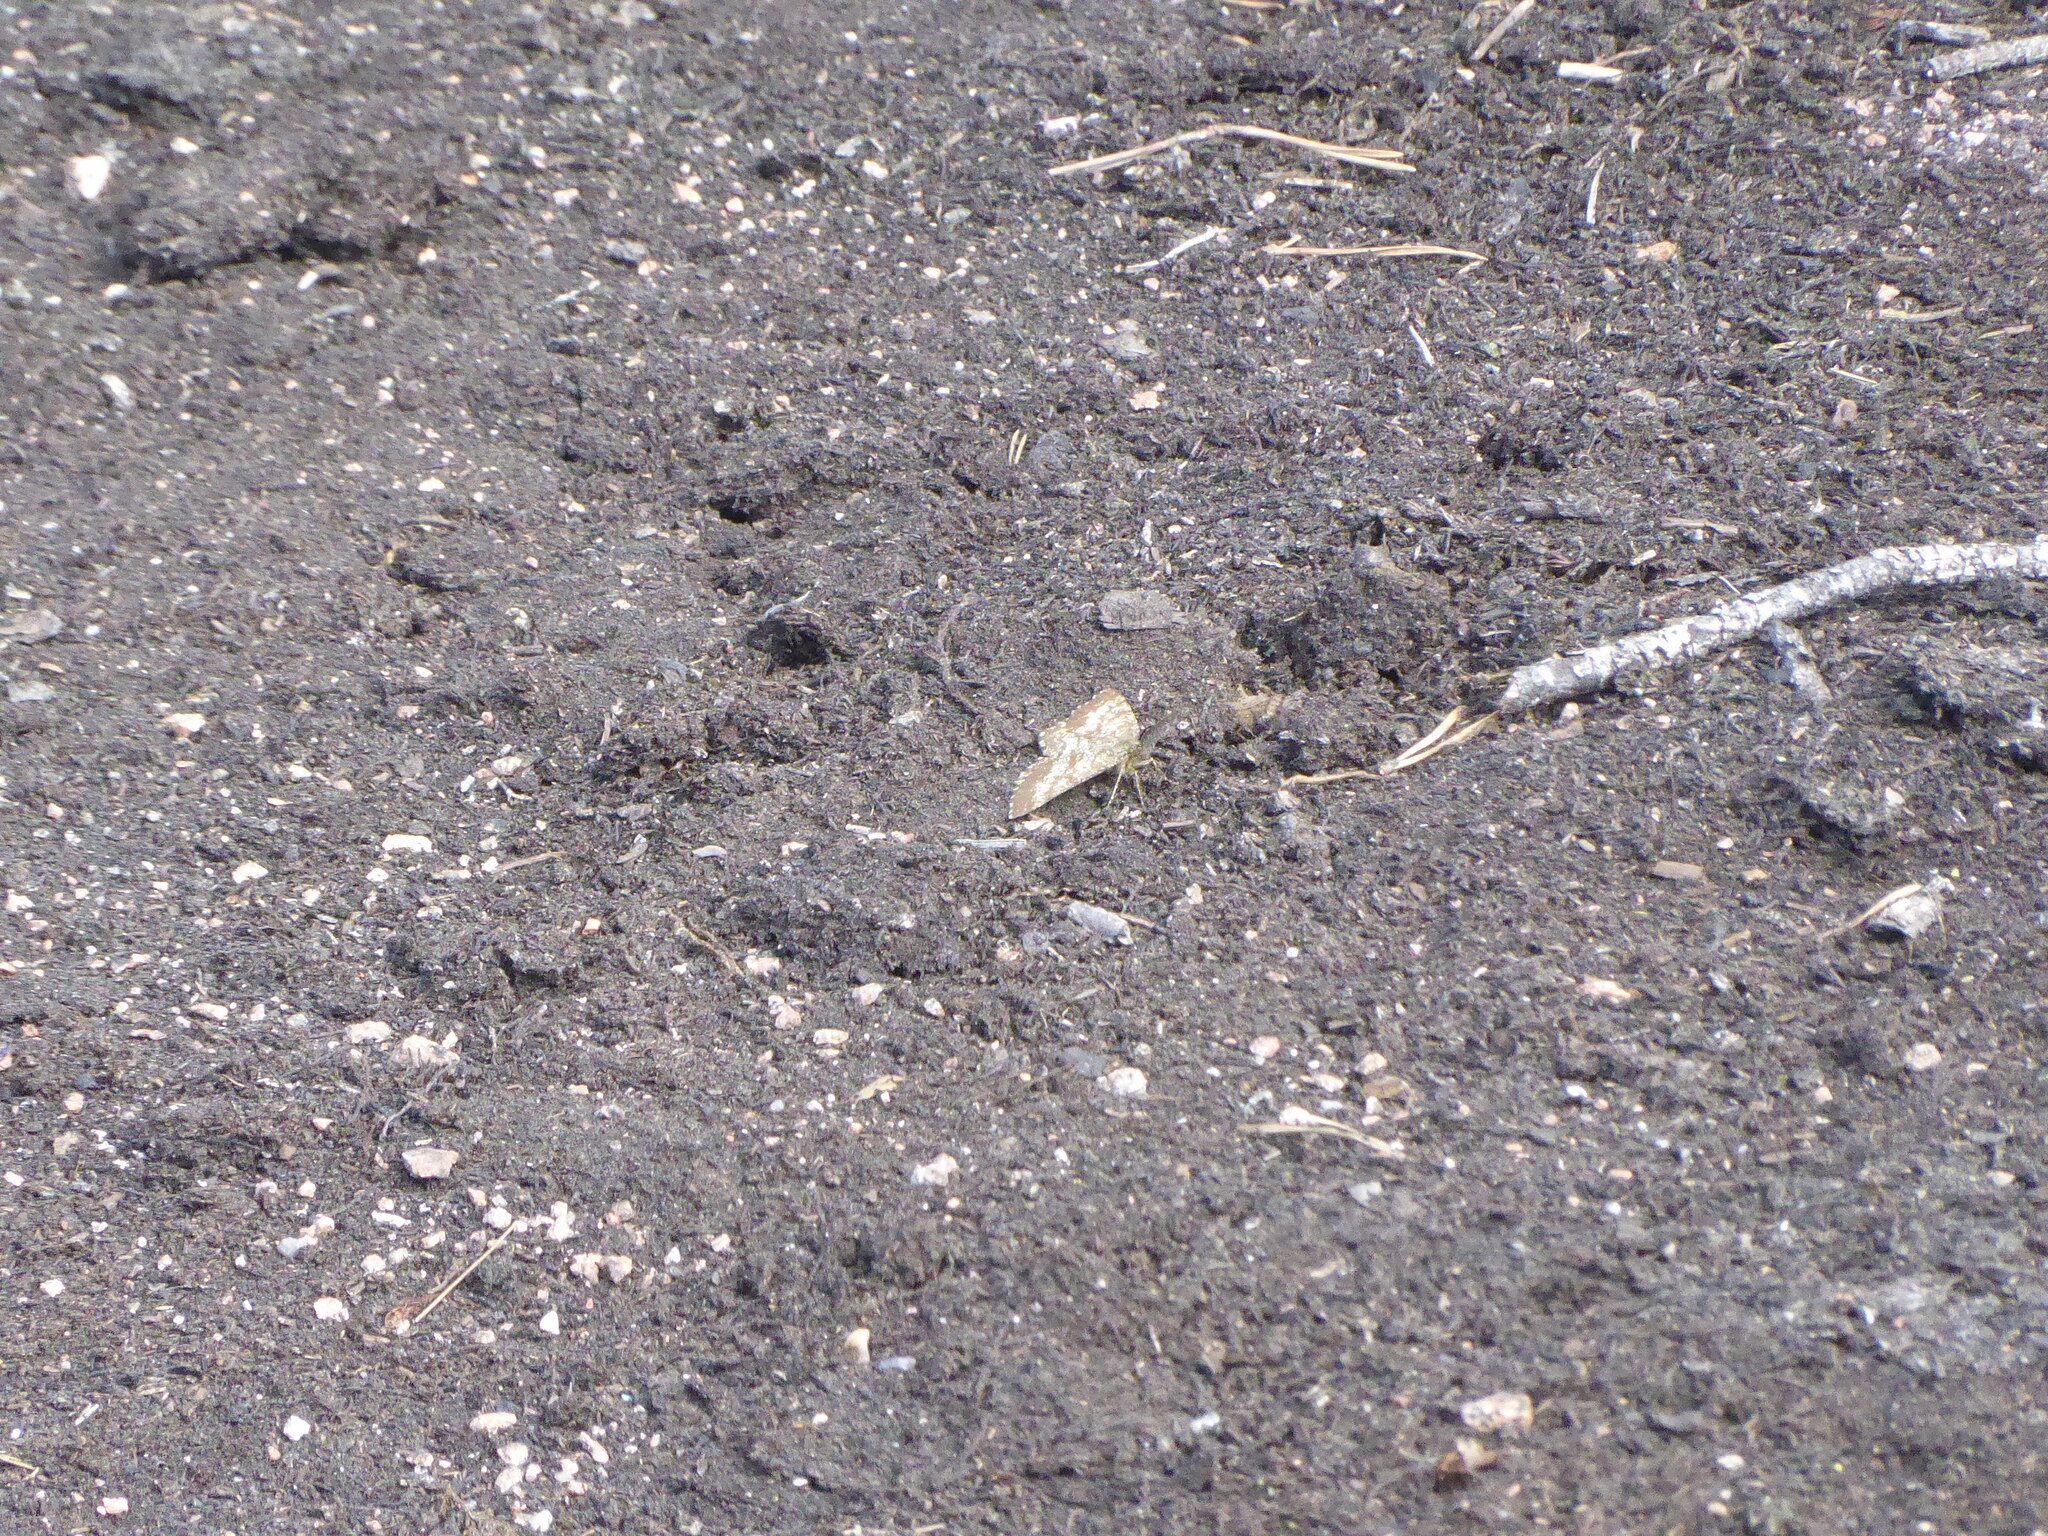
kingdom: Animalia
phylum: Arthropoda
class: Insecta
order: Lepidoptera
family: Geometridae
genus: Ematurga
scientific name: Ematurga atomaria
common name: Common heath
